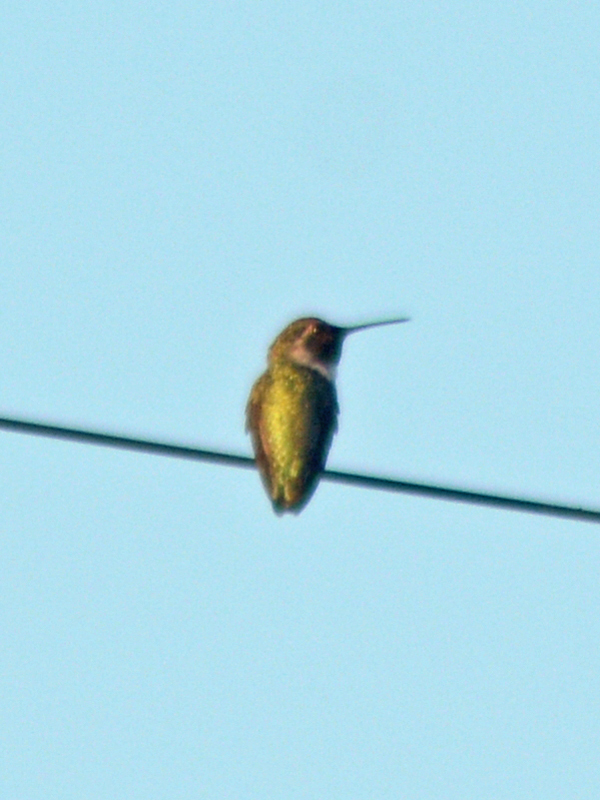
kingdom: Animalia
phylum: Chordata
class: Aves
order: Apodiformes
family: Trochilidae
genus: Calypte
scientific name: Calypte costae
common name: Costa's hummingbird
